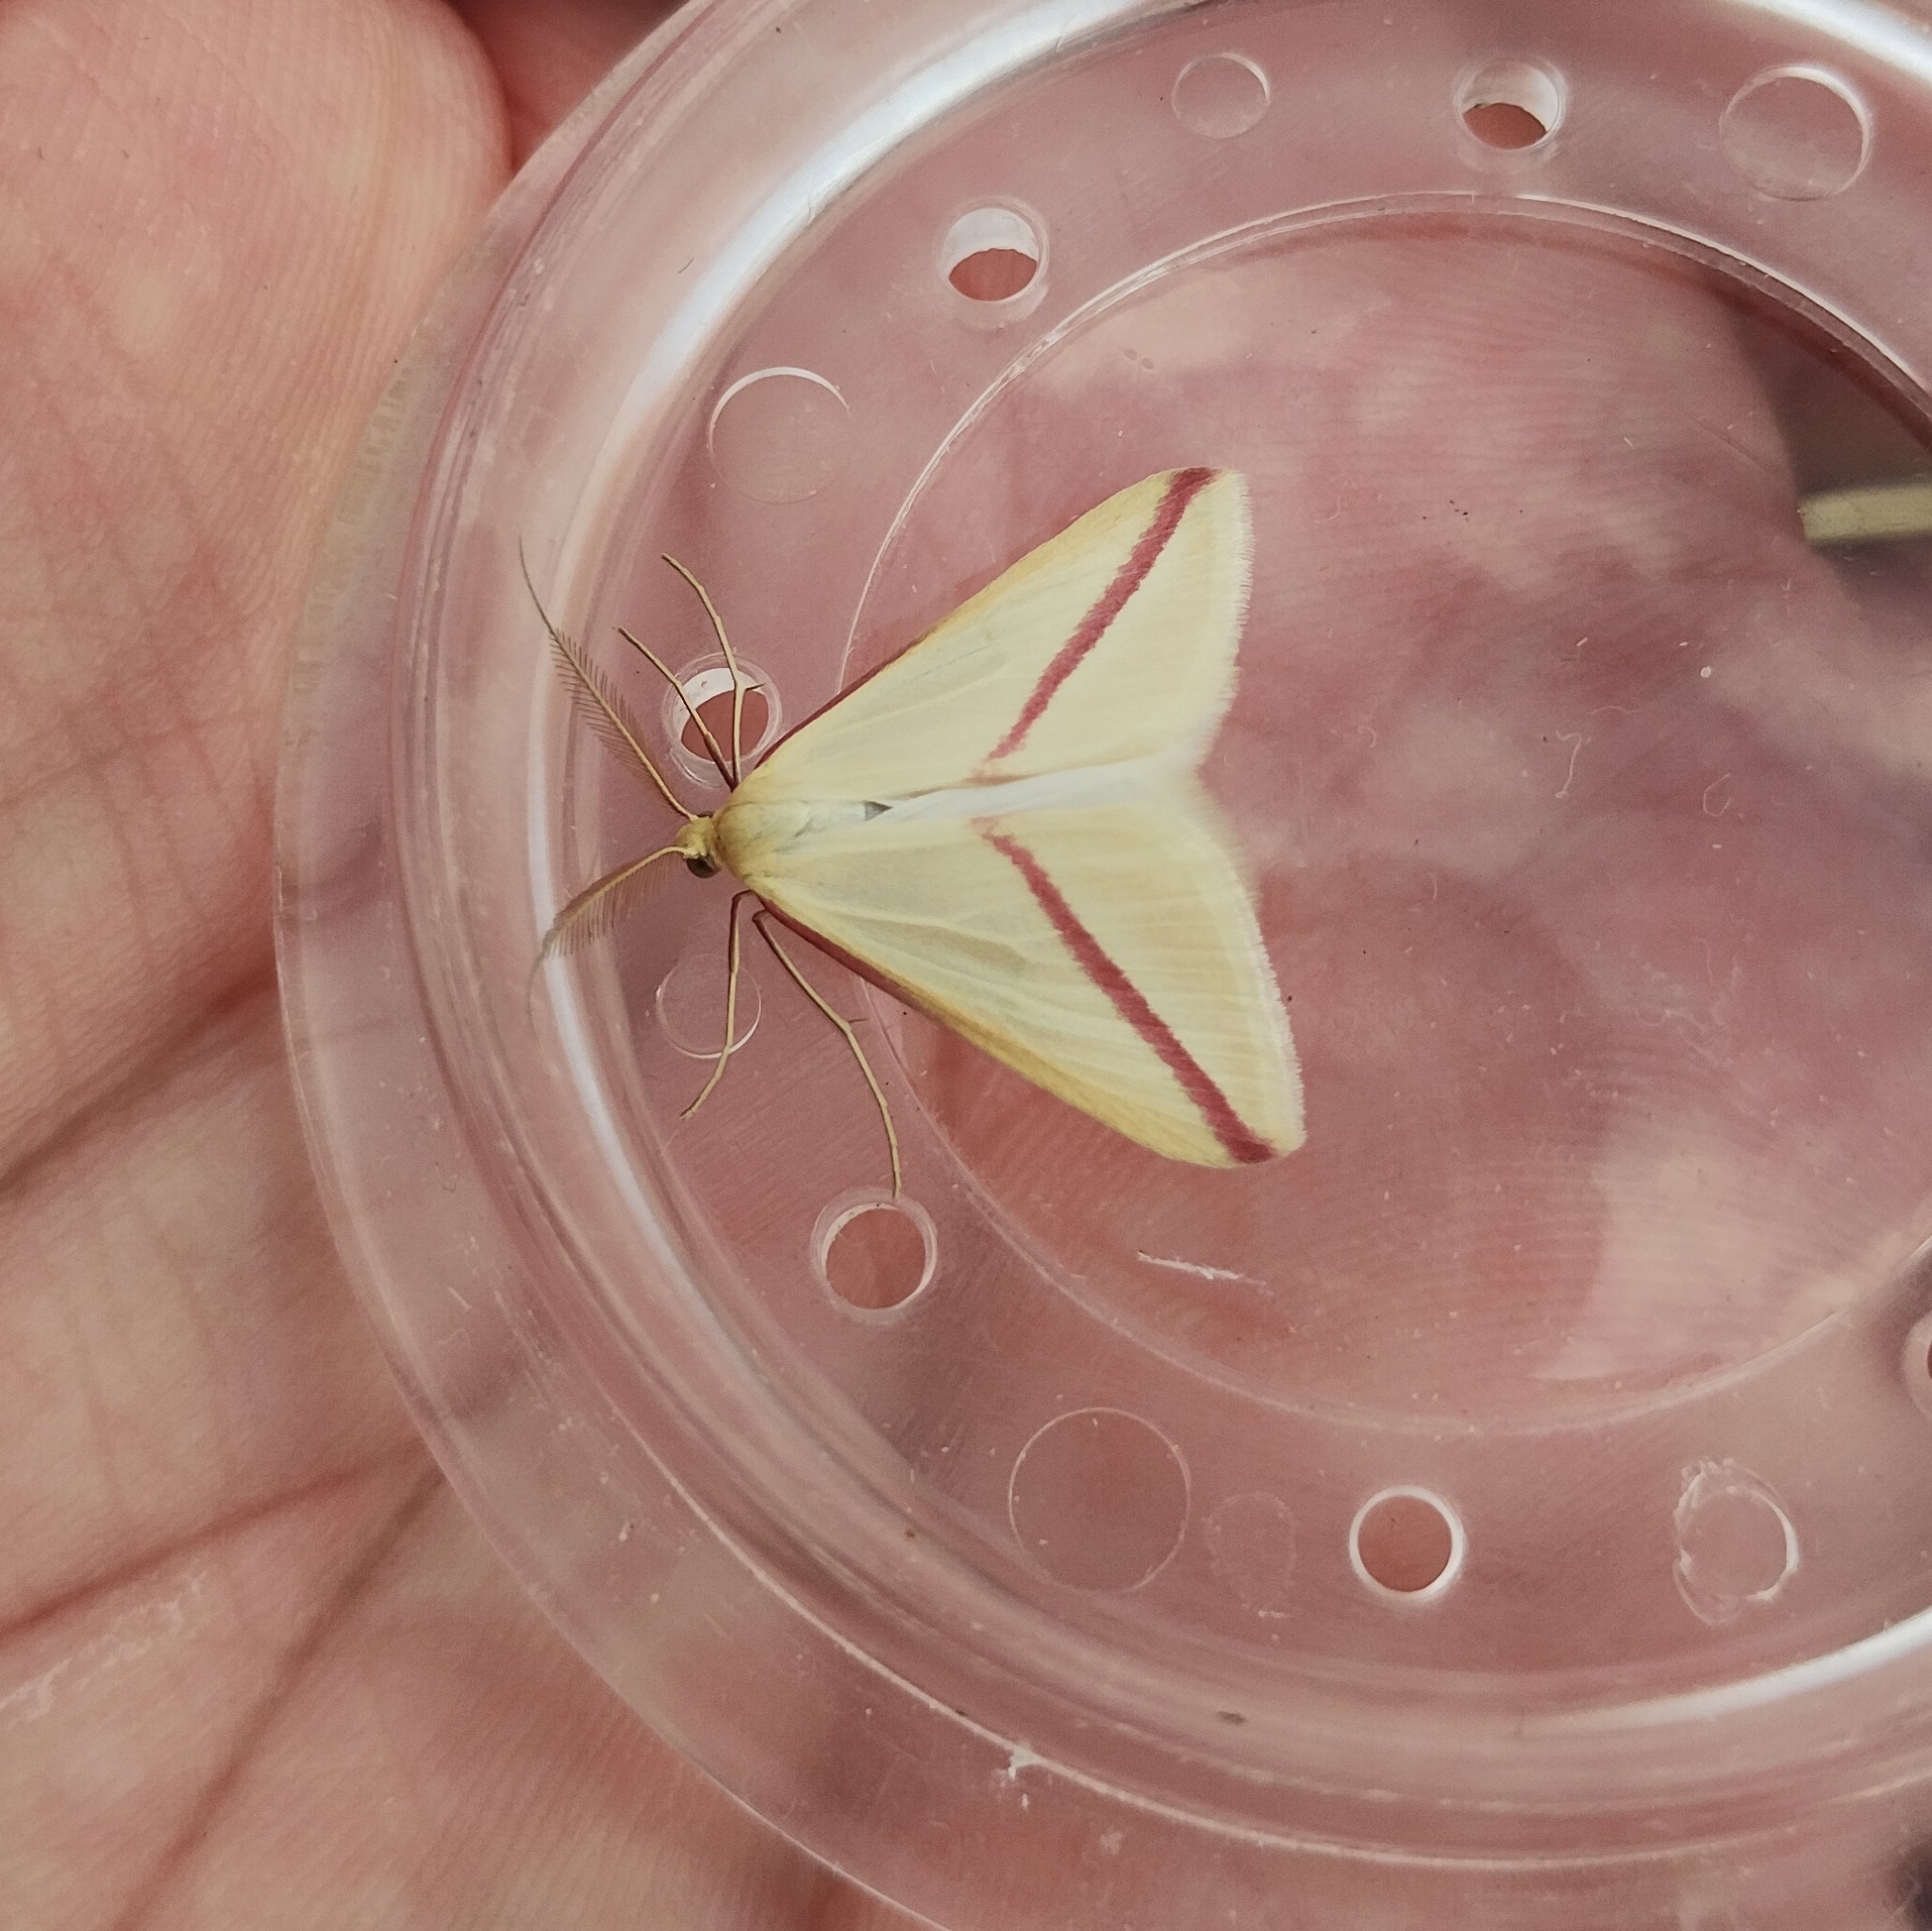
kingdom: Animalia
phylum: Arthropoda
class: Insecta
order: Lepidoptera
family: Geometridae
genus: Rhodometra
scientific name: Rhodometra sacraria
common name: Vestal
